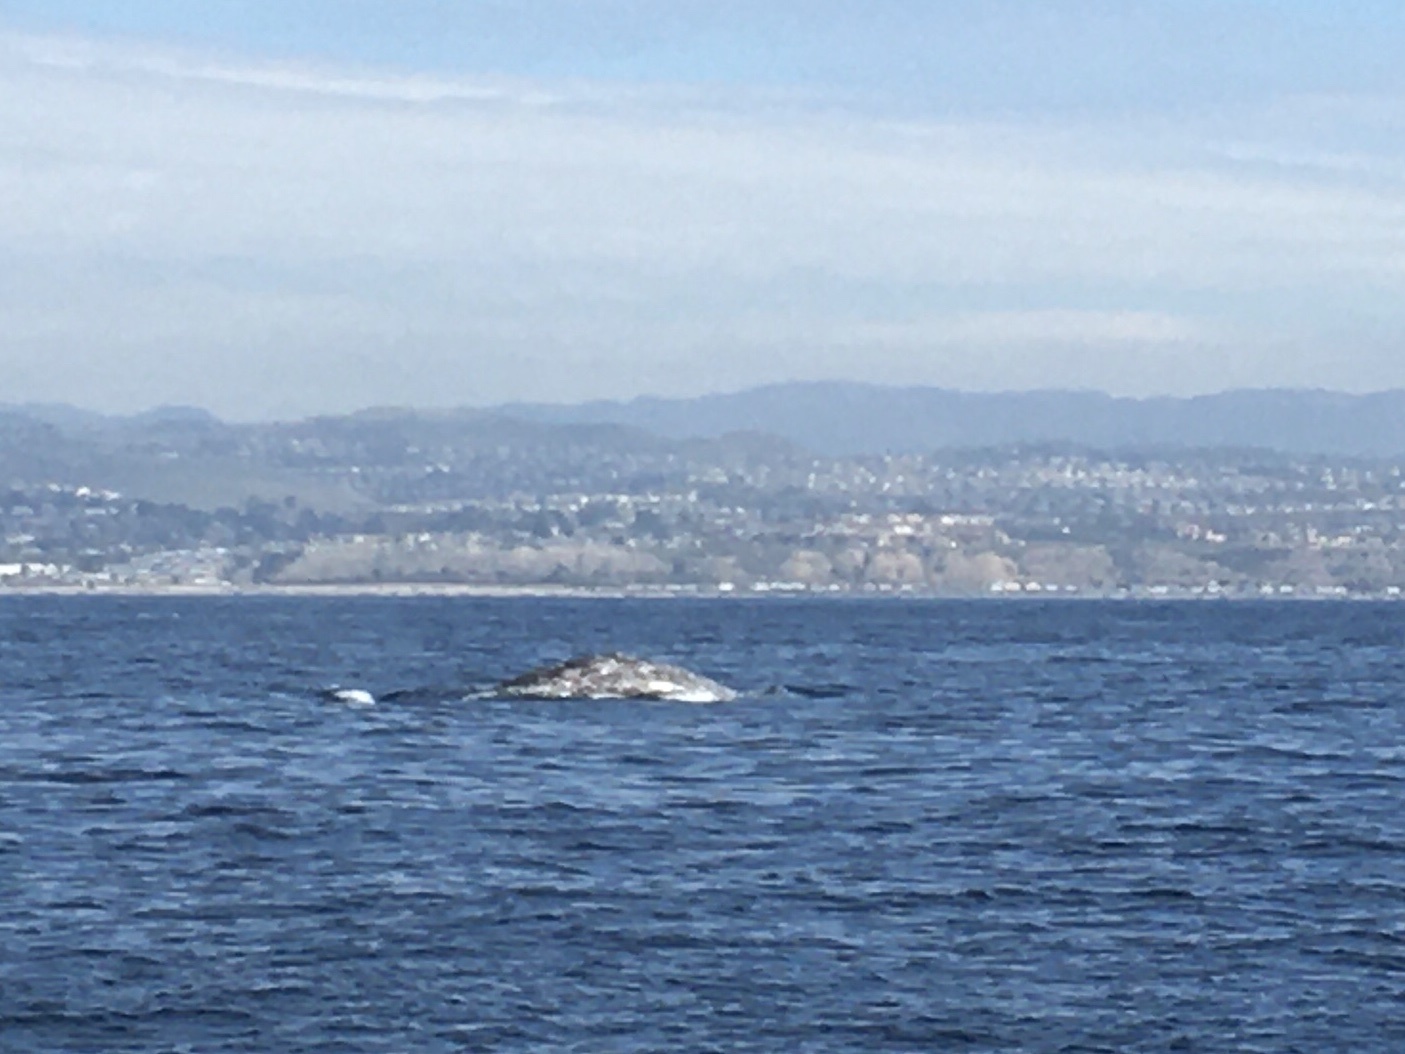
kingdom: Animalia
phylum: Chordata
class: Mammalia
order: Cetacea
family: Eschrichtiidae
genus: Eschrichtius
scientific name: Eschrichtius robustus
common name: Gray whale
